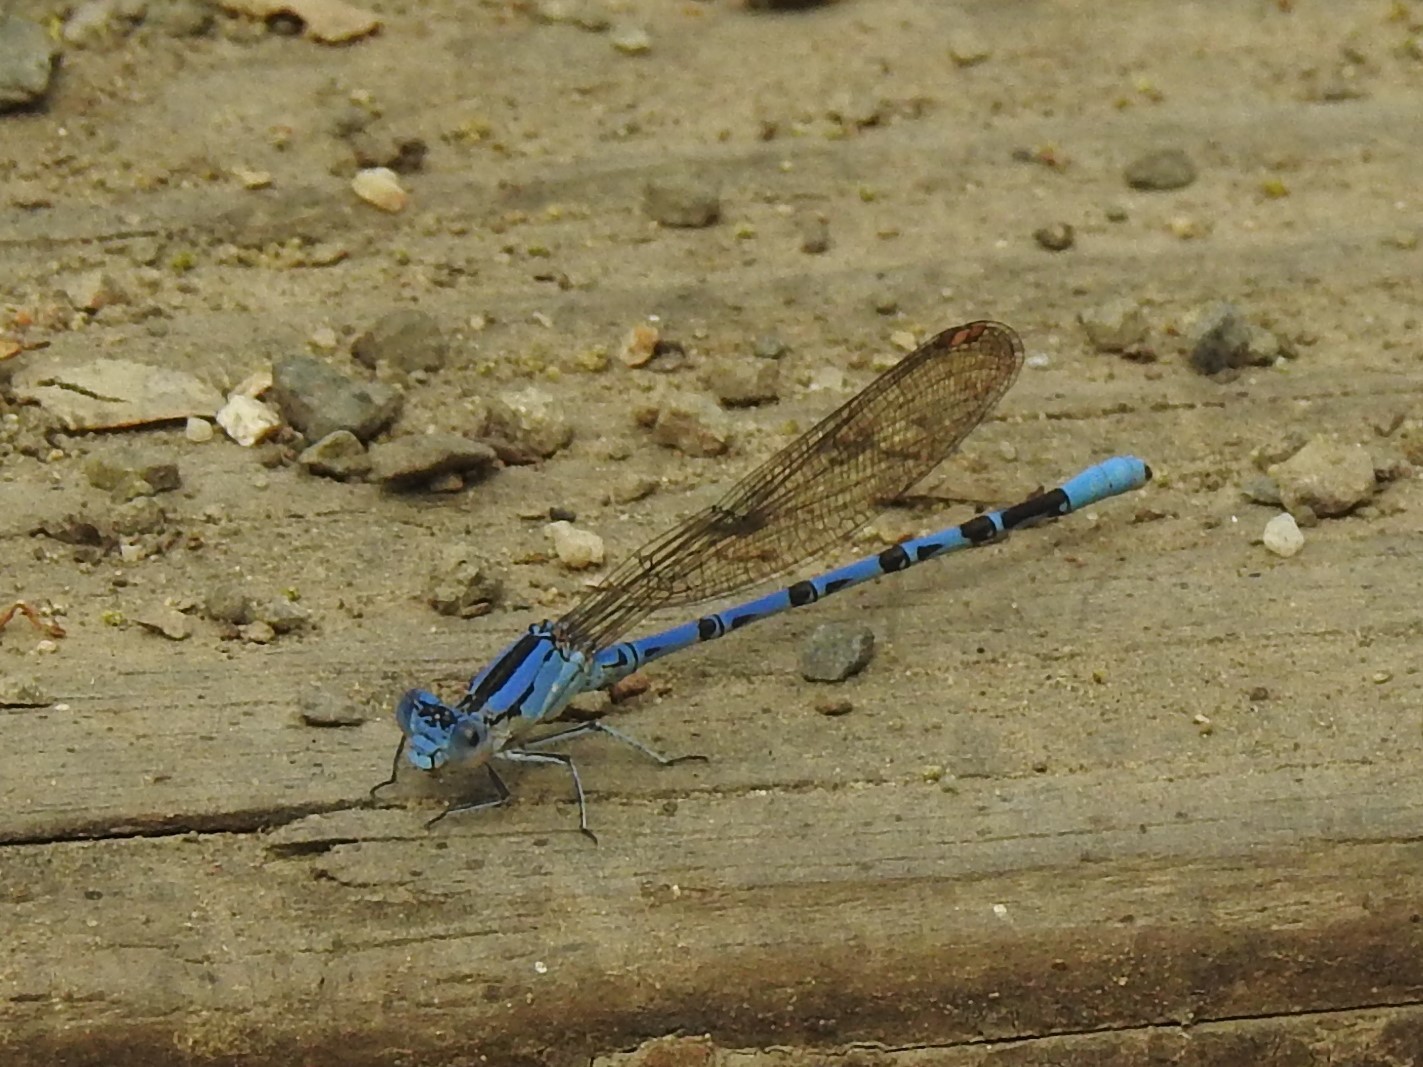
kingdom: Animalia
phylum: Arthropoda
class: Insecta
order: Odonata
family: Coenagrionidae
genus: Argia
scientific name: Argia vivida
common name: Vivid dancer
